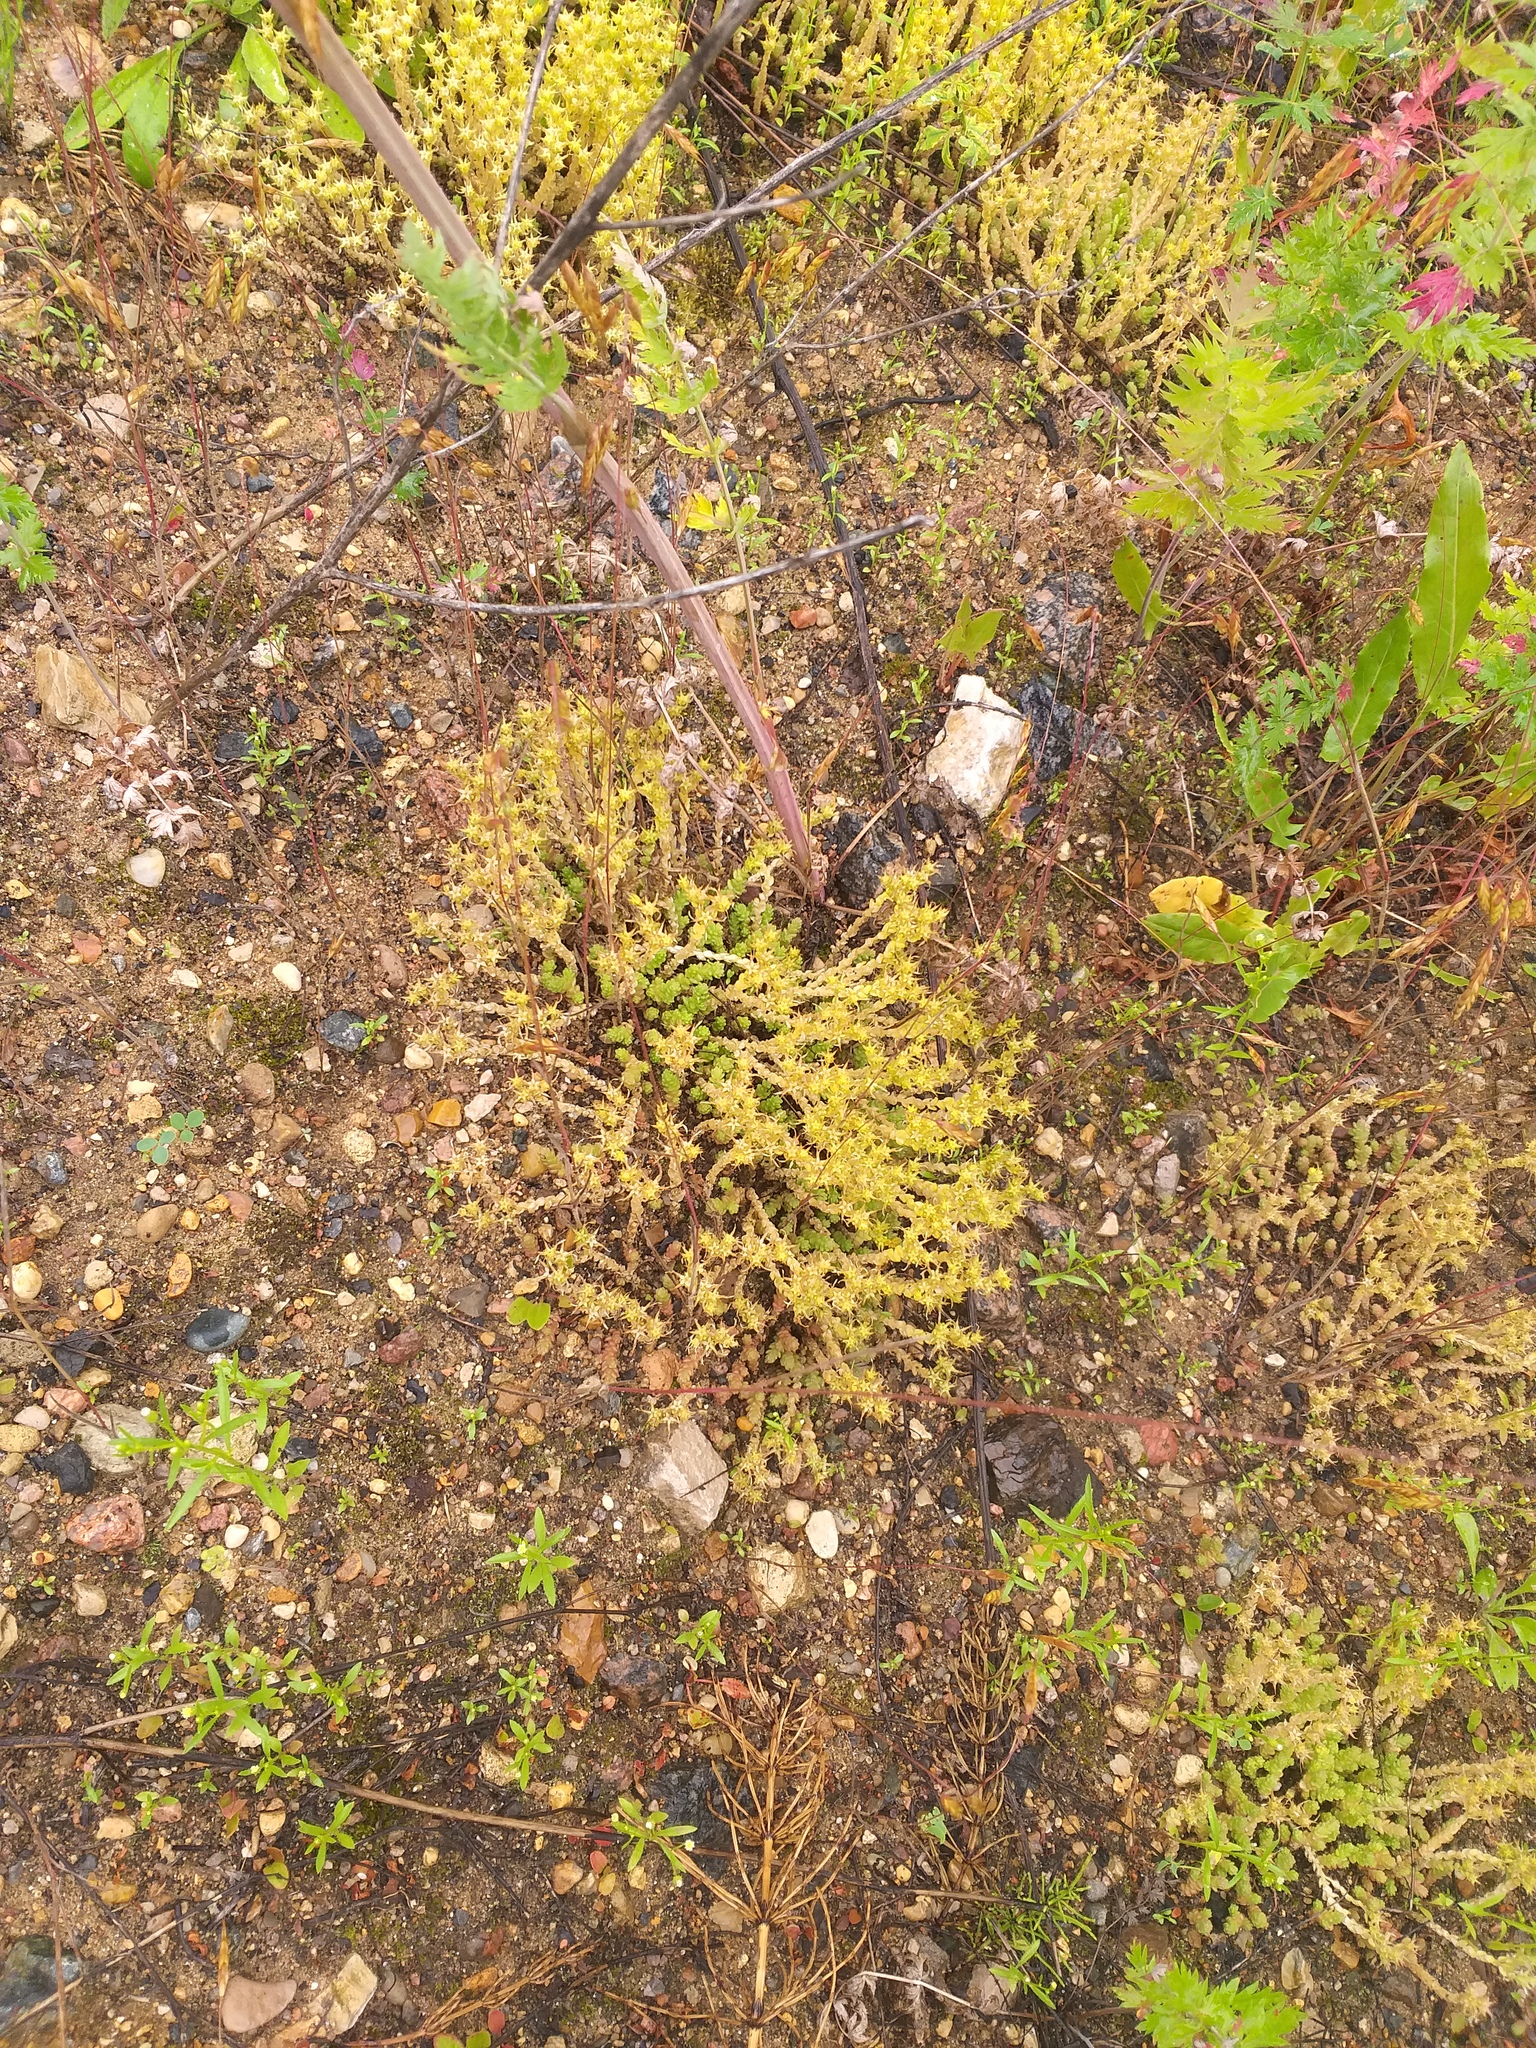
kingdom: Plantae
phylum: Tracheophyta
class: Magnoliopsida
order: Saxifragales
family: Crassulaceae
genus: Sedum
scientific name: Sedum acre
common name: Biting stonecrop
